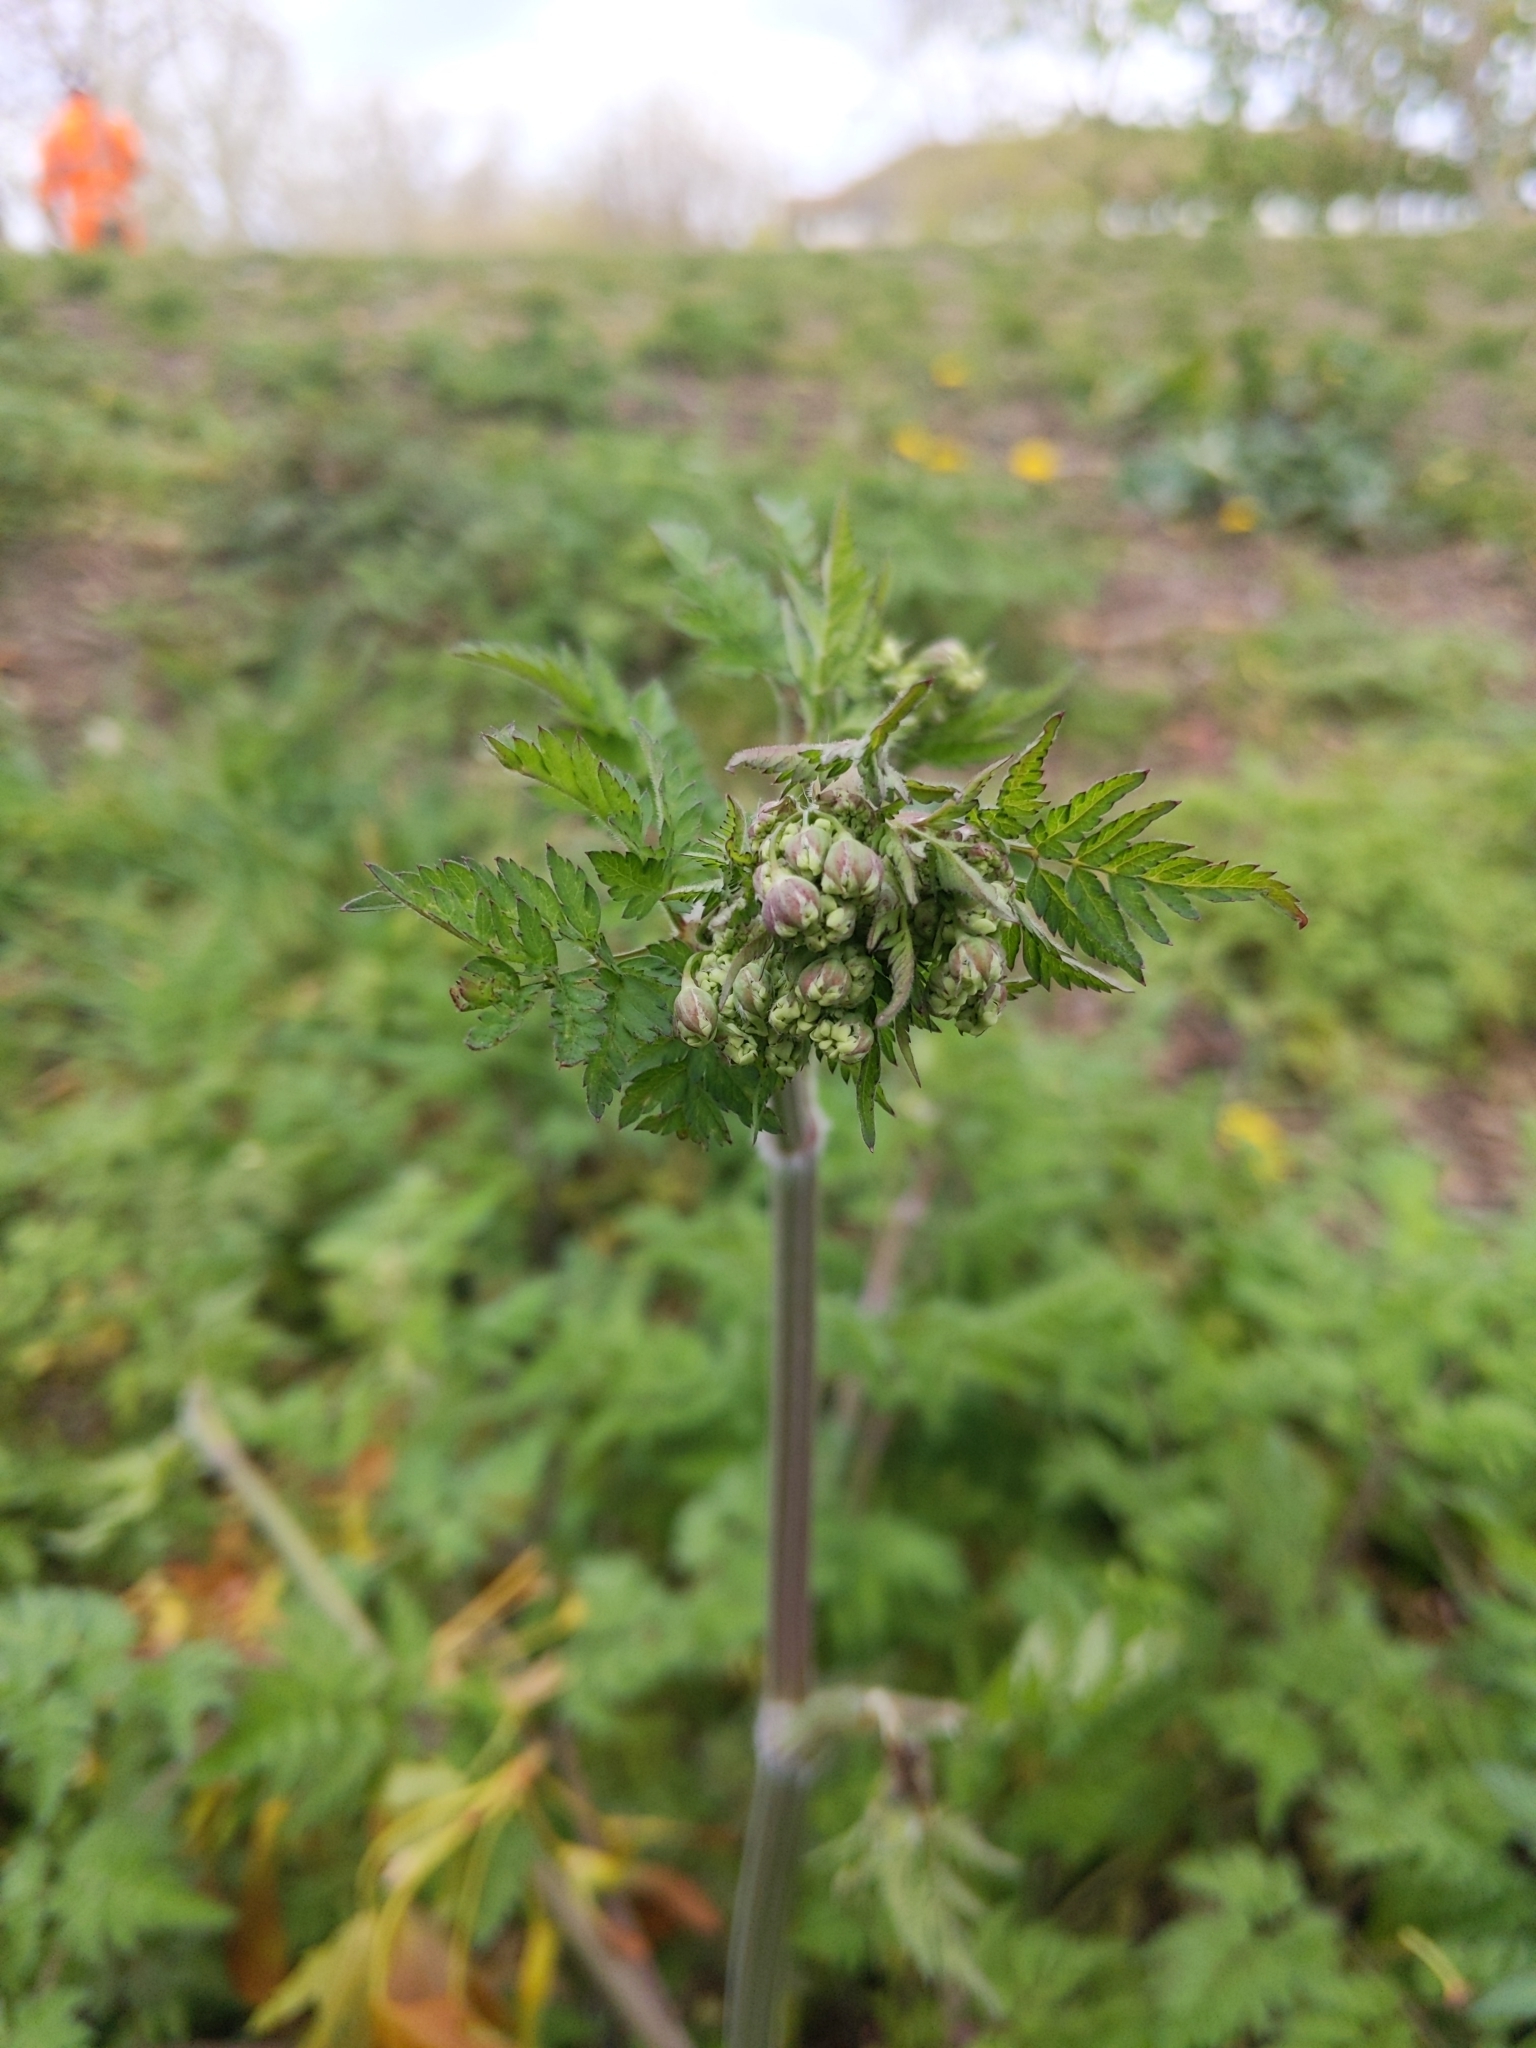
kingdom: Plantae
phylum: Tracheophyta
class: Magnoliopsida
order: Apiales
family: Apiaceae
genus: Anthriscus
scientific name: Anthriscus sylvestris
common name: Cow parsley
